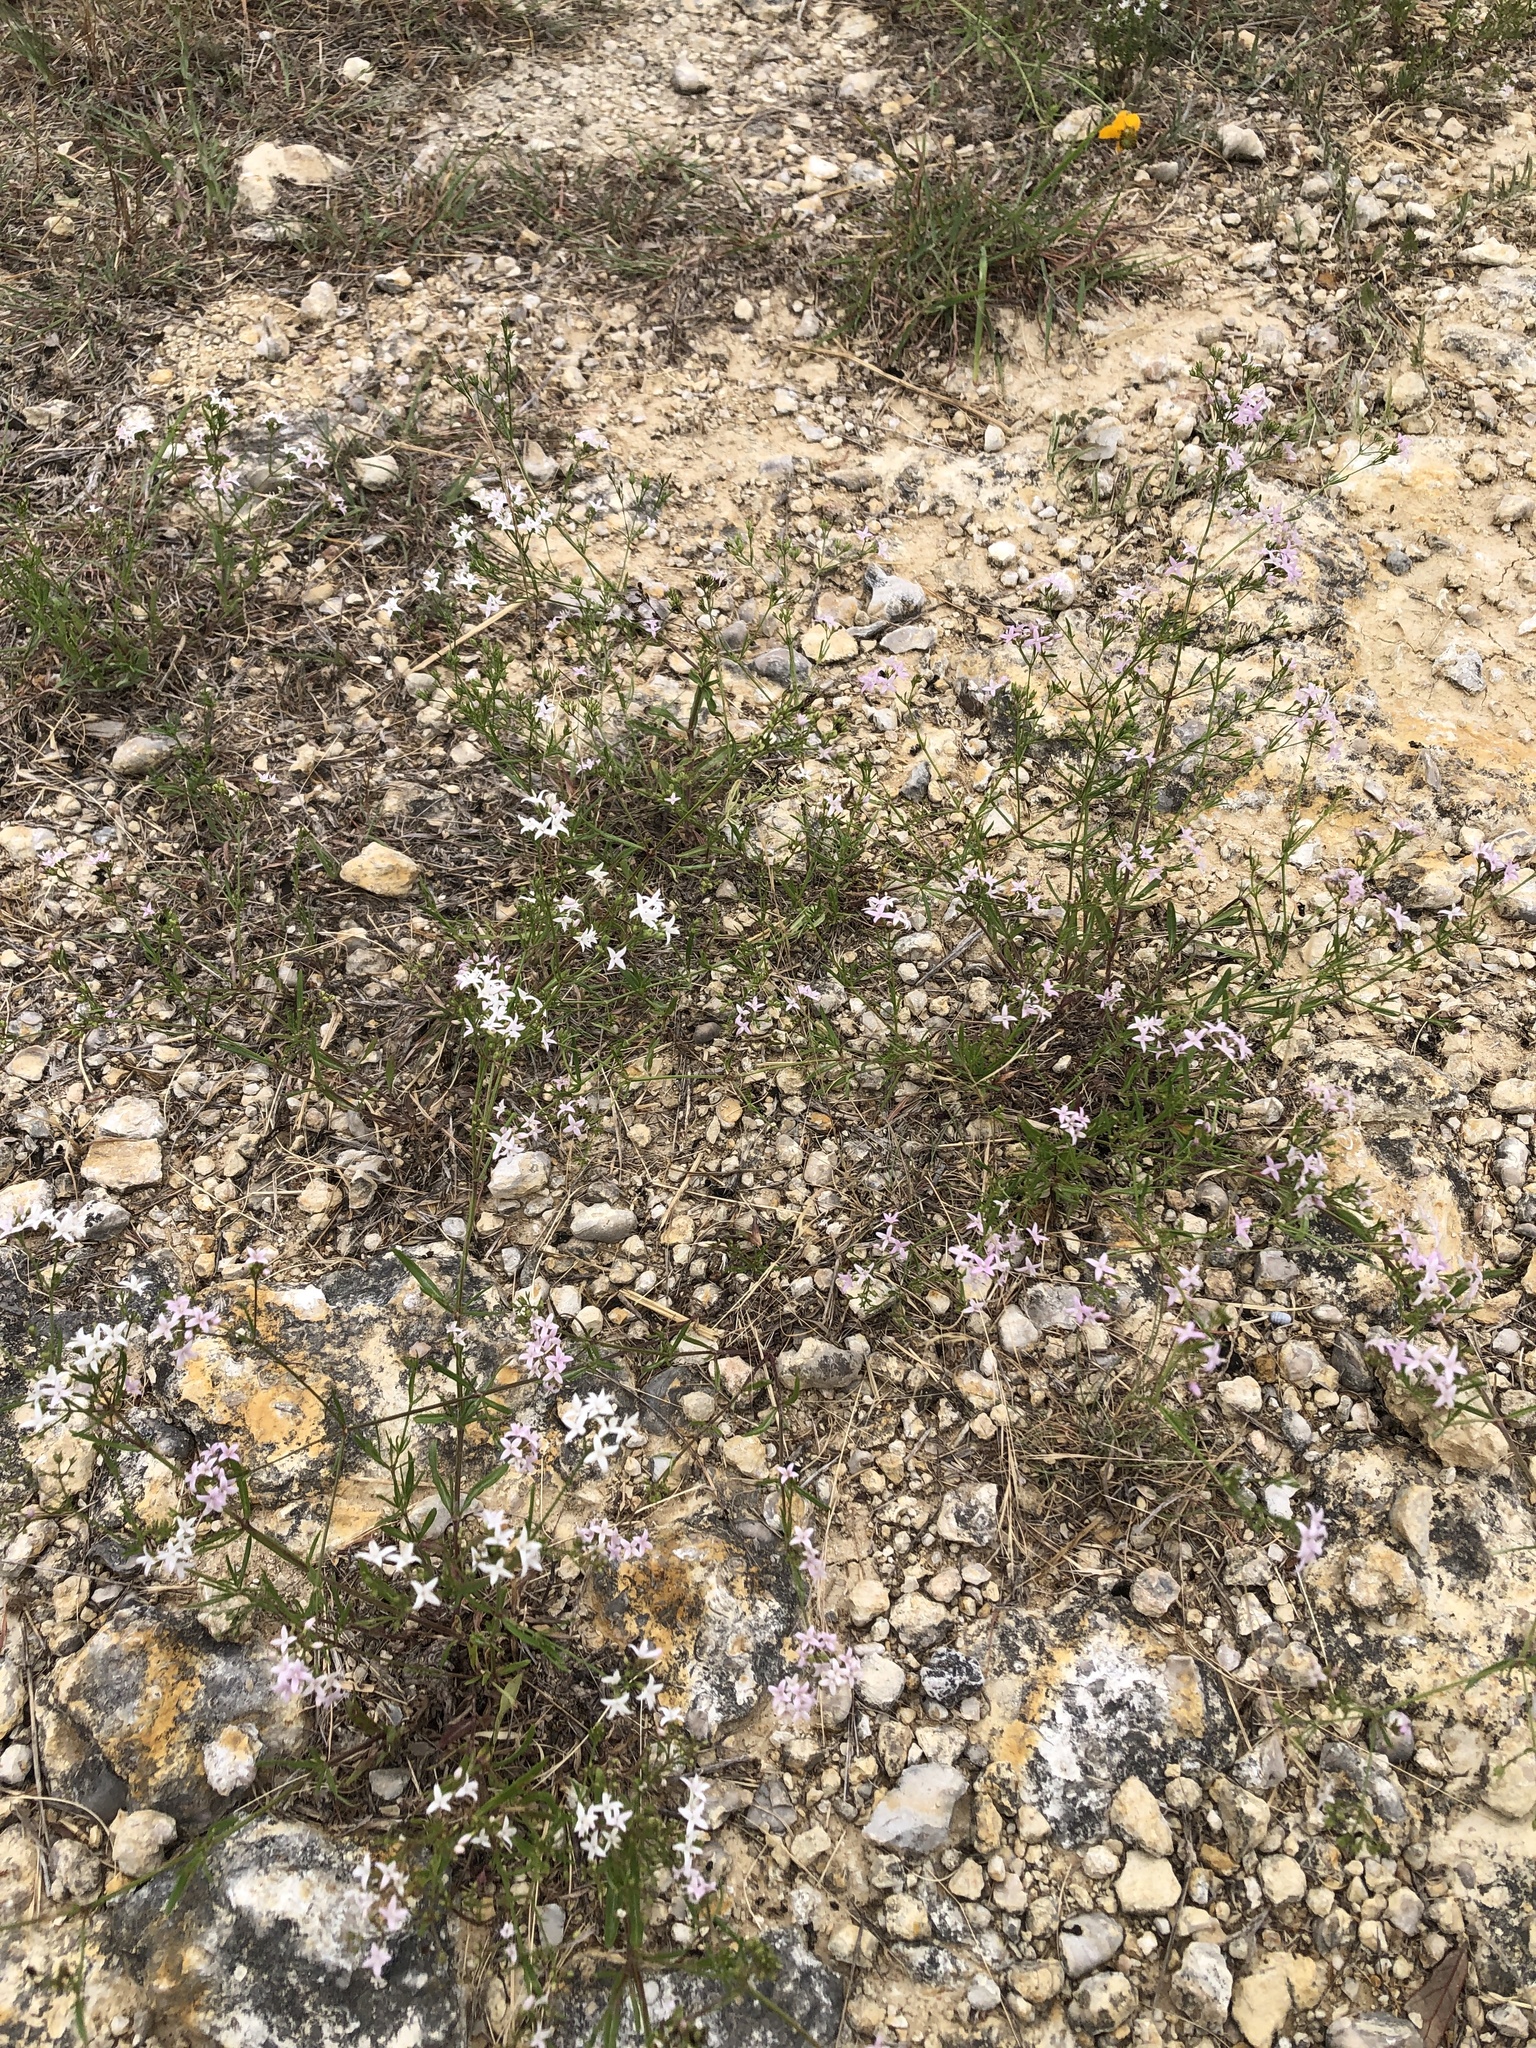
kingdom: Plantae
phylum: Tracheophyta
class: Magnoliopsida
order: Gentianales
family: Rubiaceae
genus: Stenaria
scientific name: Stenaria nigricans
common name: Diamondflowers
